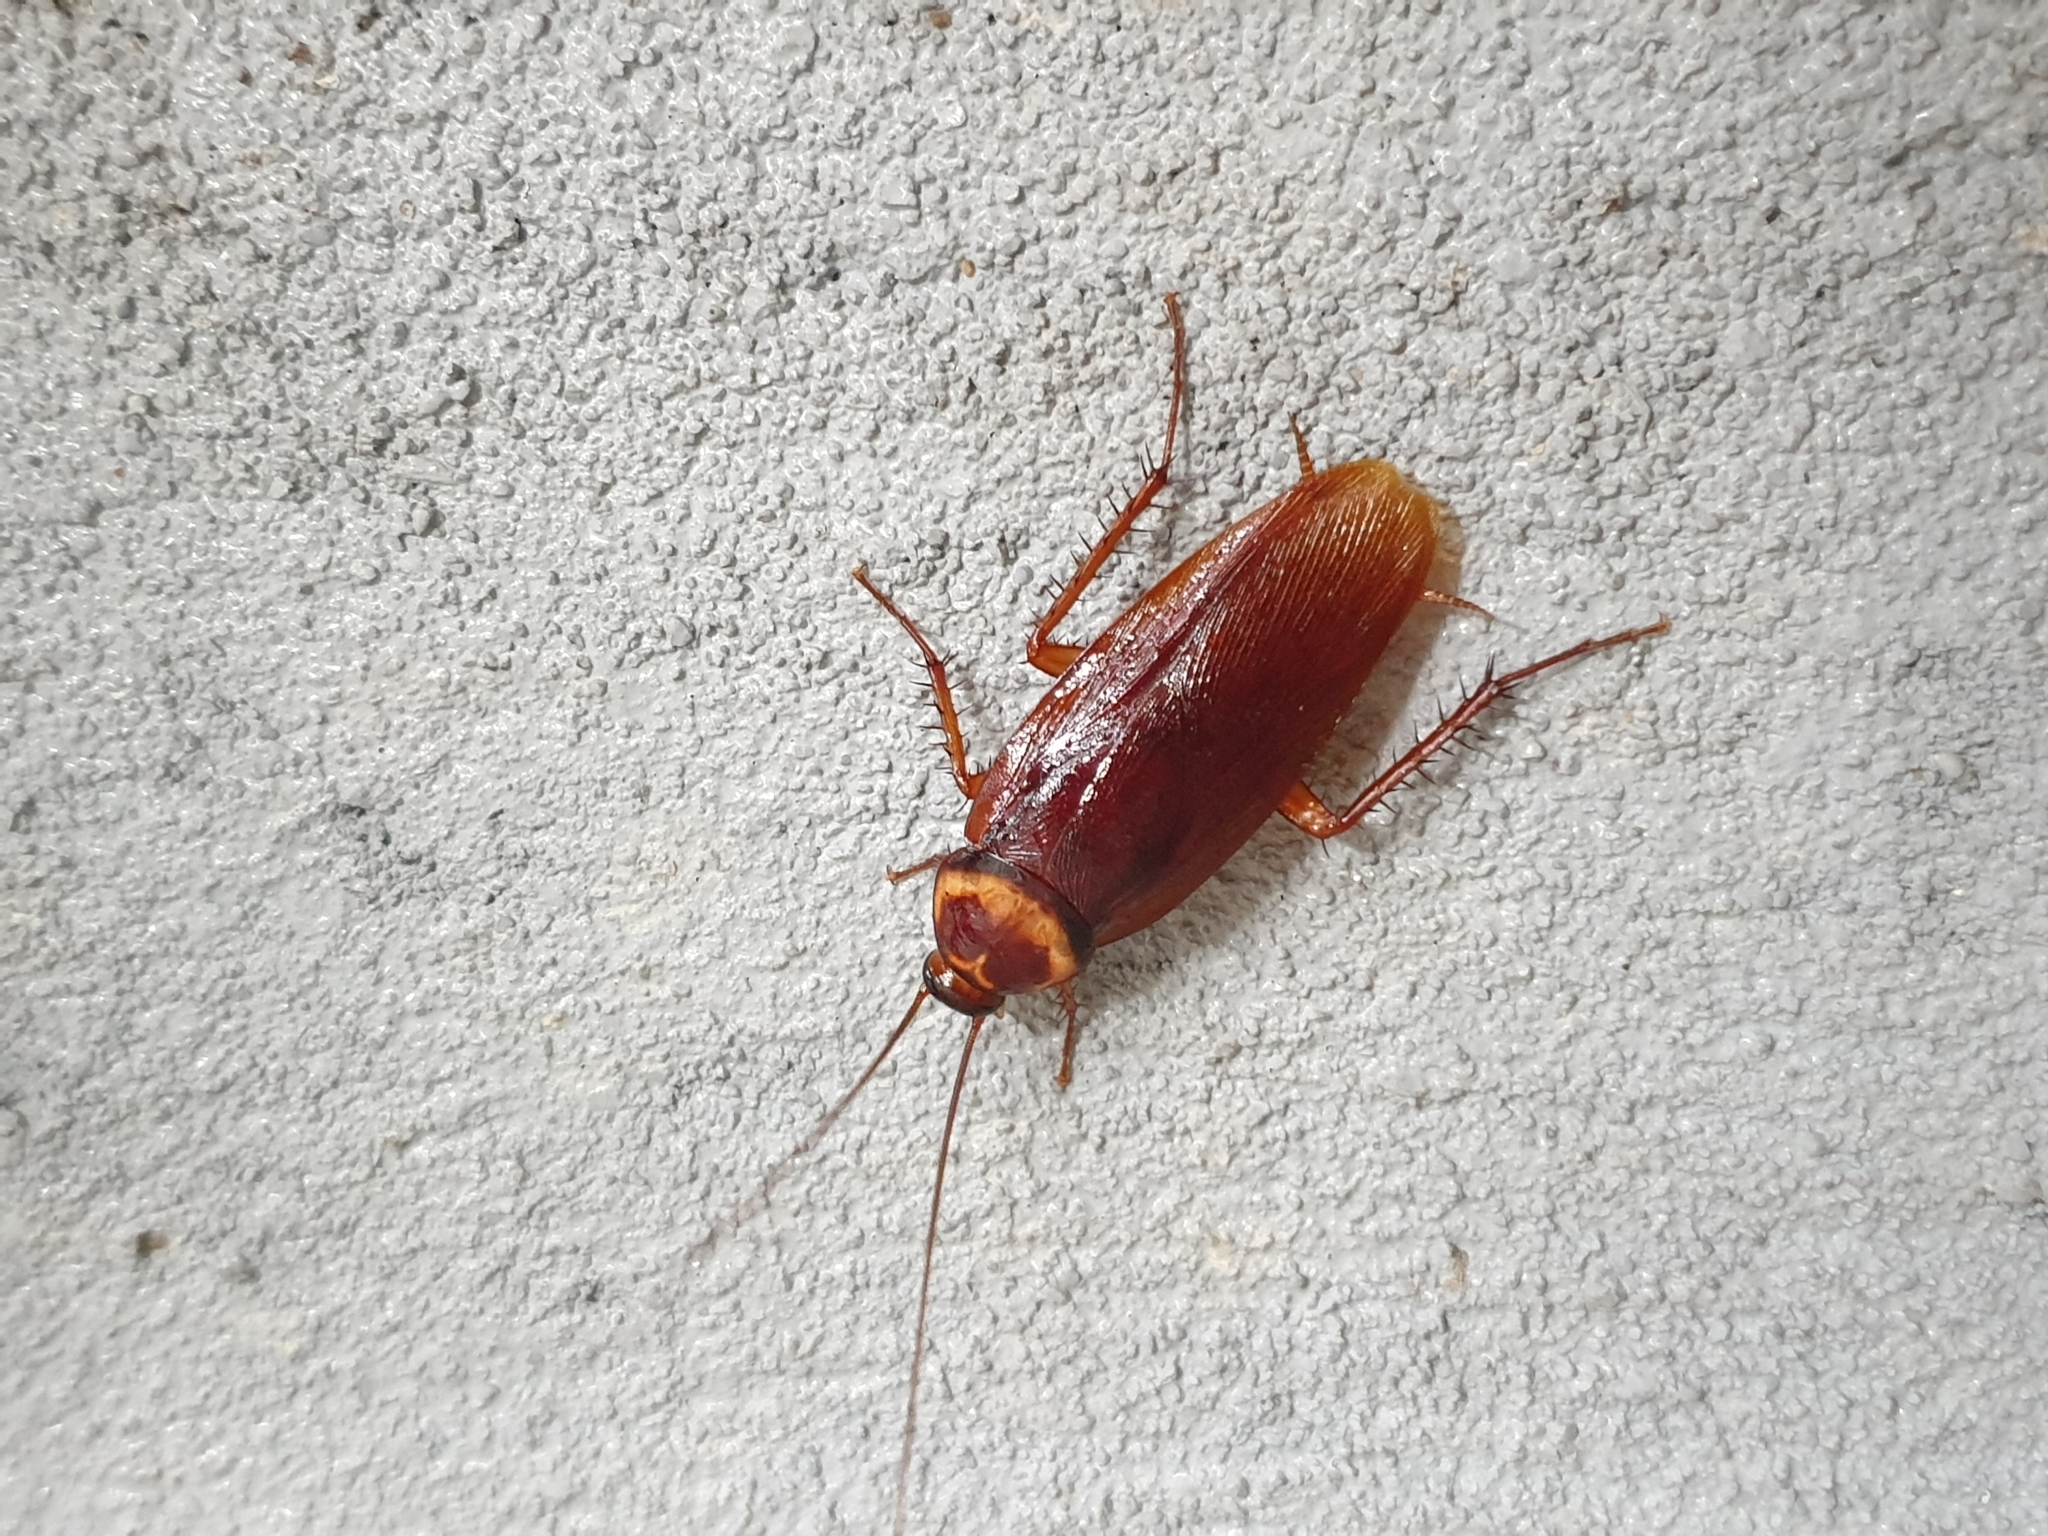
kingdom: Animalia
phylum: Arthropoda
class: Insecta
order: Blattodea
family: Blattidae
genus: Periplaneta
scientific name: Periplaneta americana
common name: American cockroach
